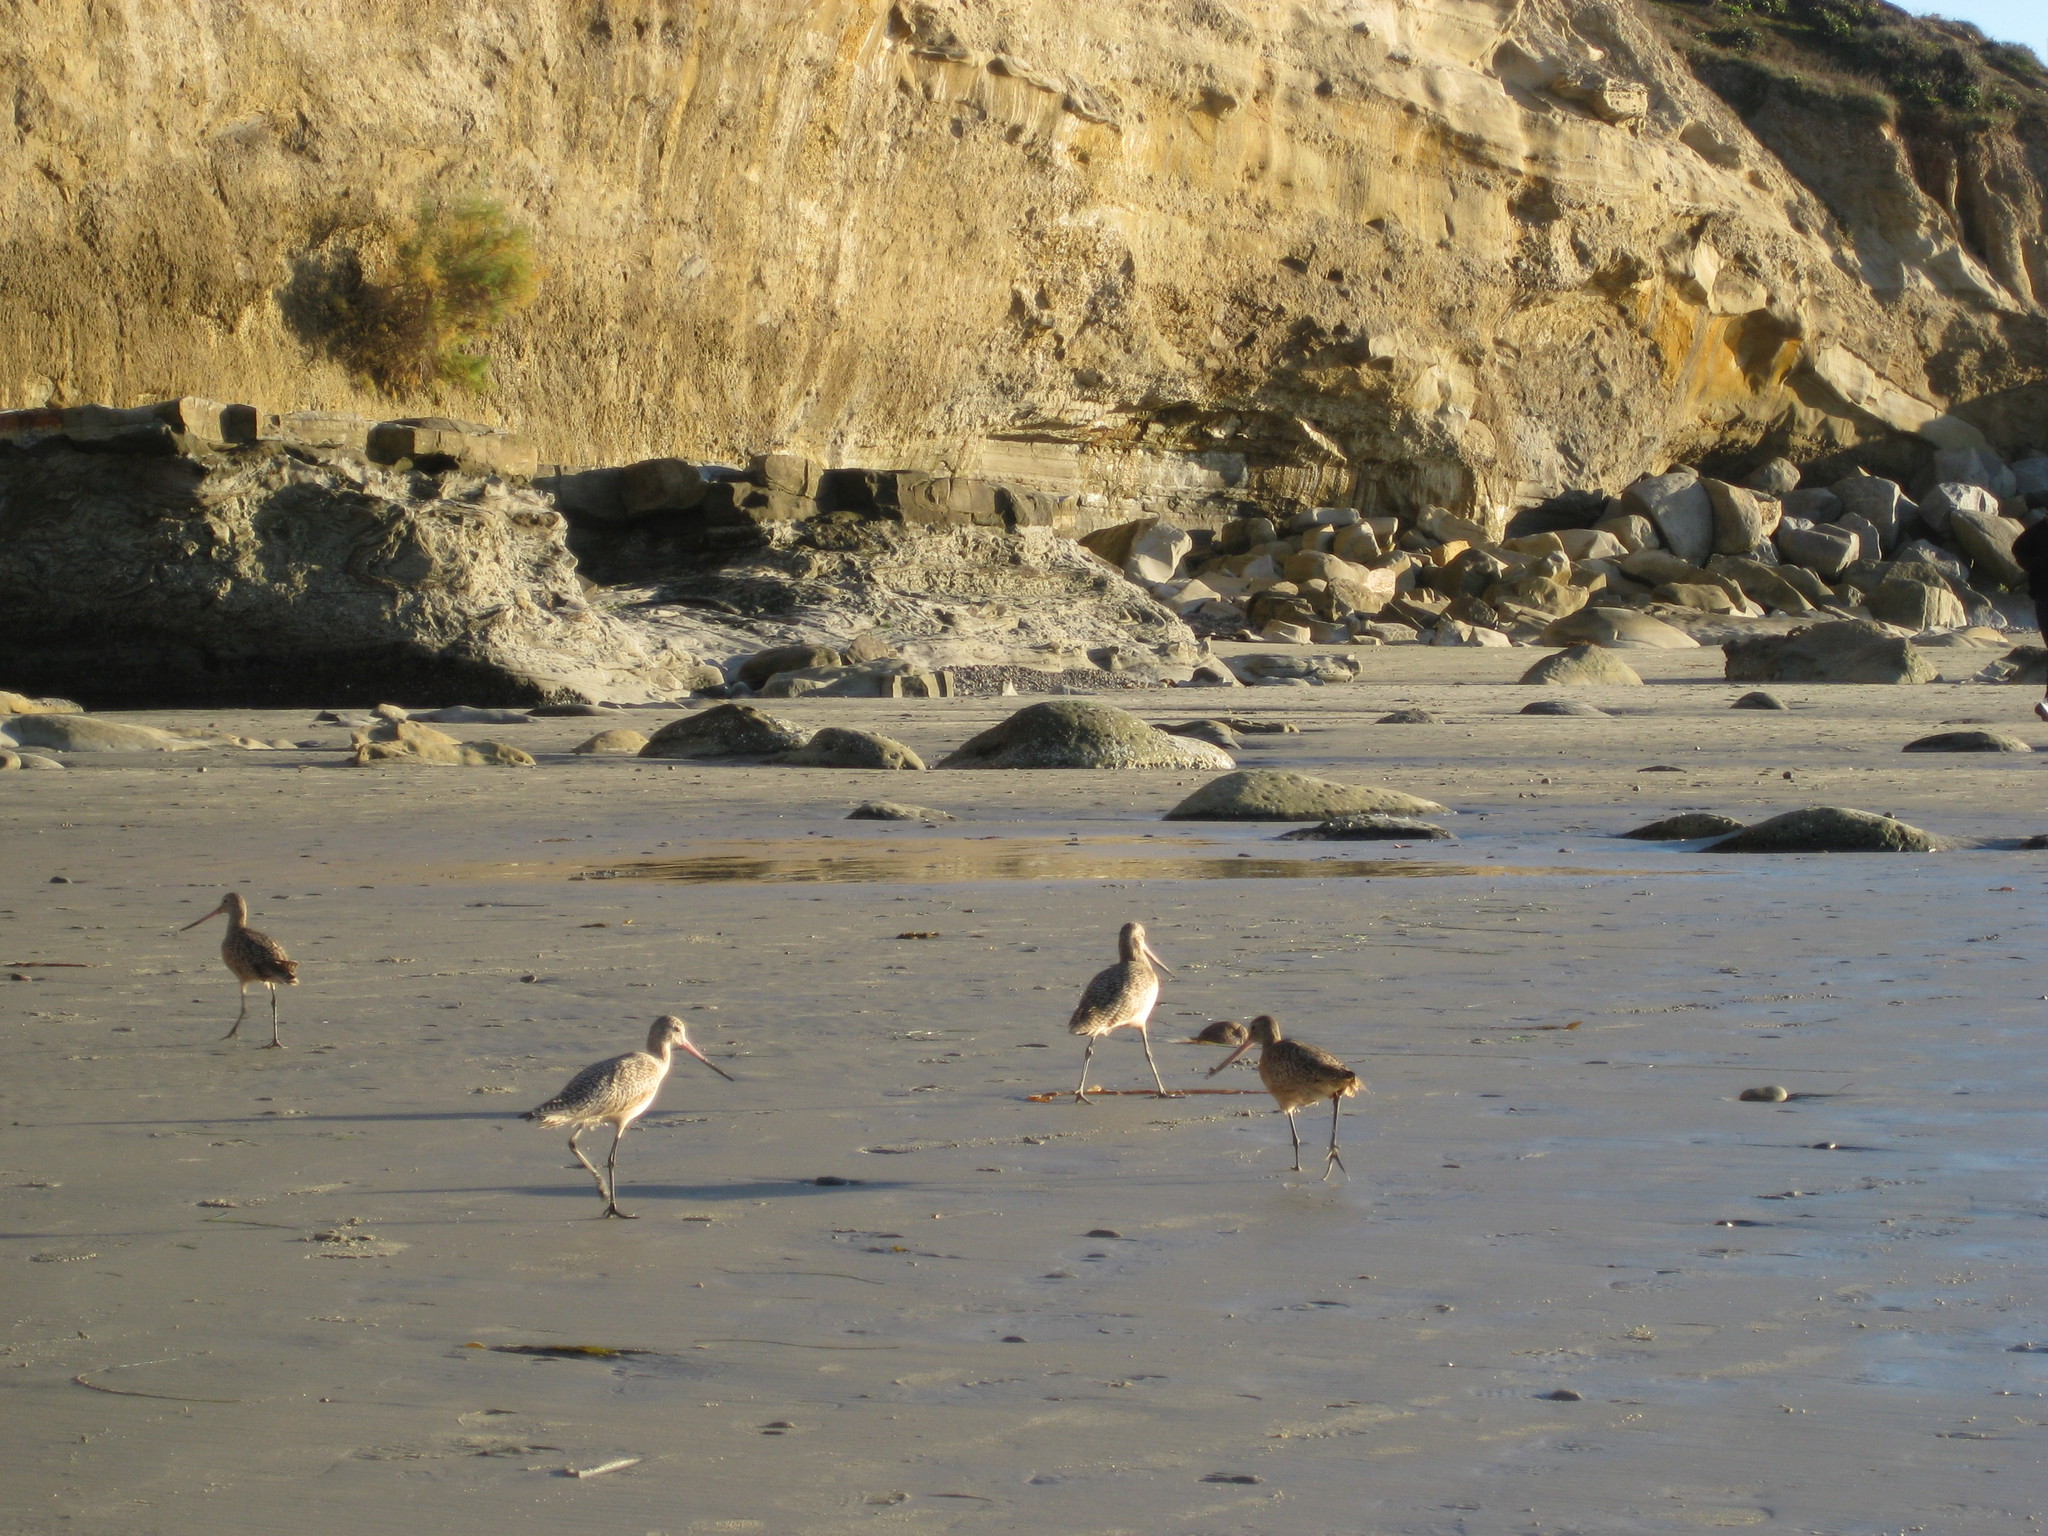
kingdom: Animalia
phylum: Chordata
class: Aves
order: Charadriiformes
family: Scolopacidae
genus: Limosa
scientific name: Limosa fedoa
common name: Marbled godwit
